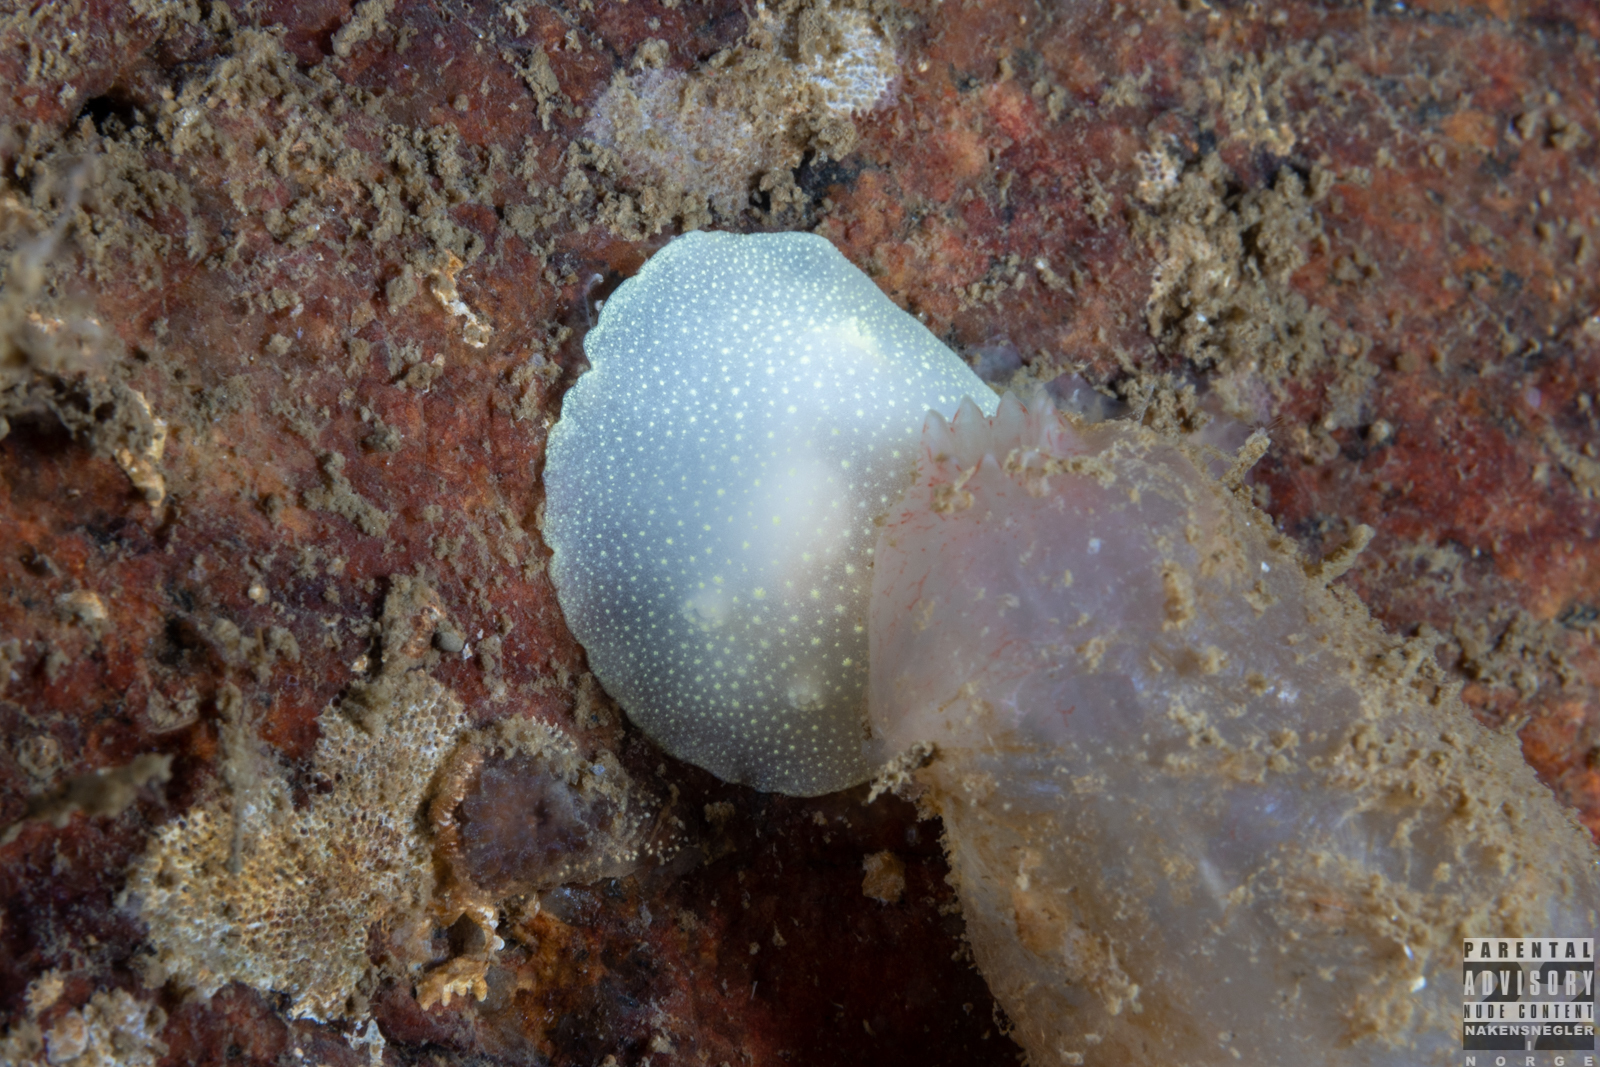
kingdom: Animalia
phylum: Mollusca
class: Gastropoda
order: Nudibranchia
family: Cadlinidae
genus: Cadlina
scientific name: Cadlina laevis
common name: White atlantic cadlina
